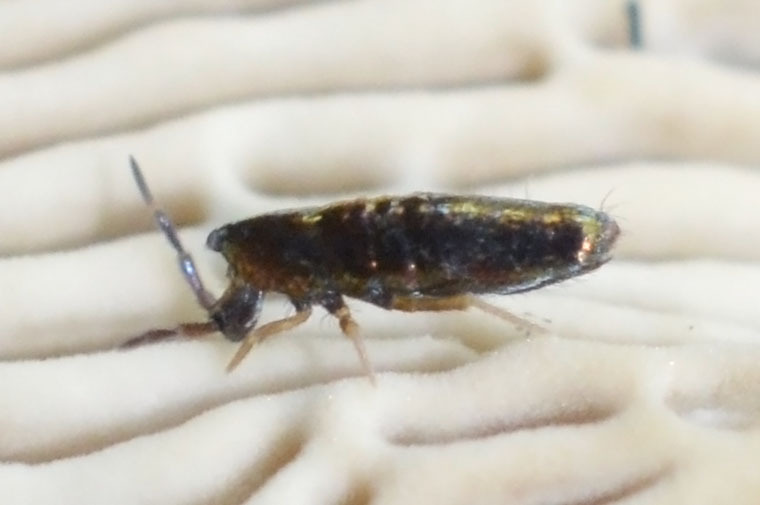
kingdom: Animalia
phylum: Arthropoda
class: Collembola
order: Entomobryomorpha
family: Entomobryidae
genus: Lepidocyrtus
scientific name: Lepidocyrtus paradoxus
